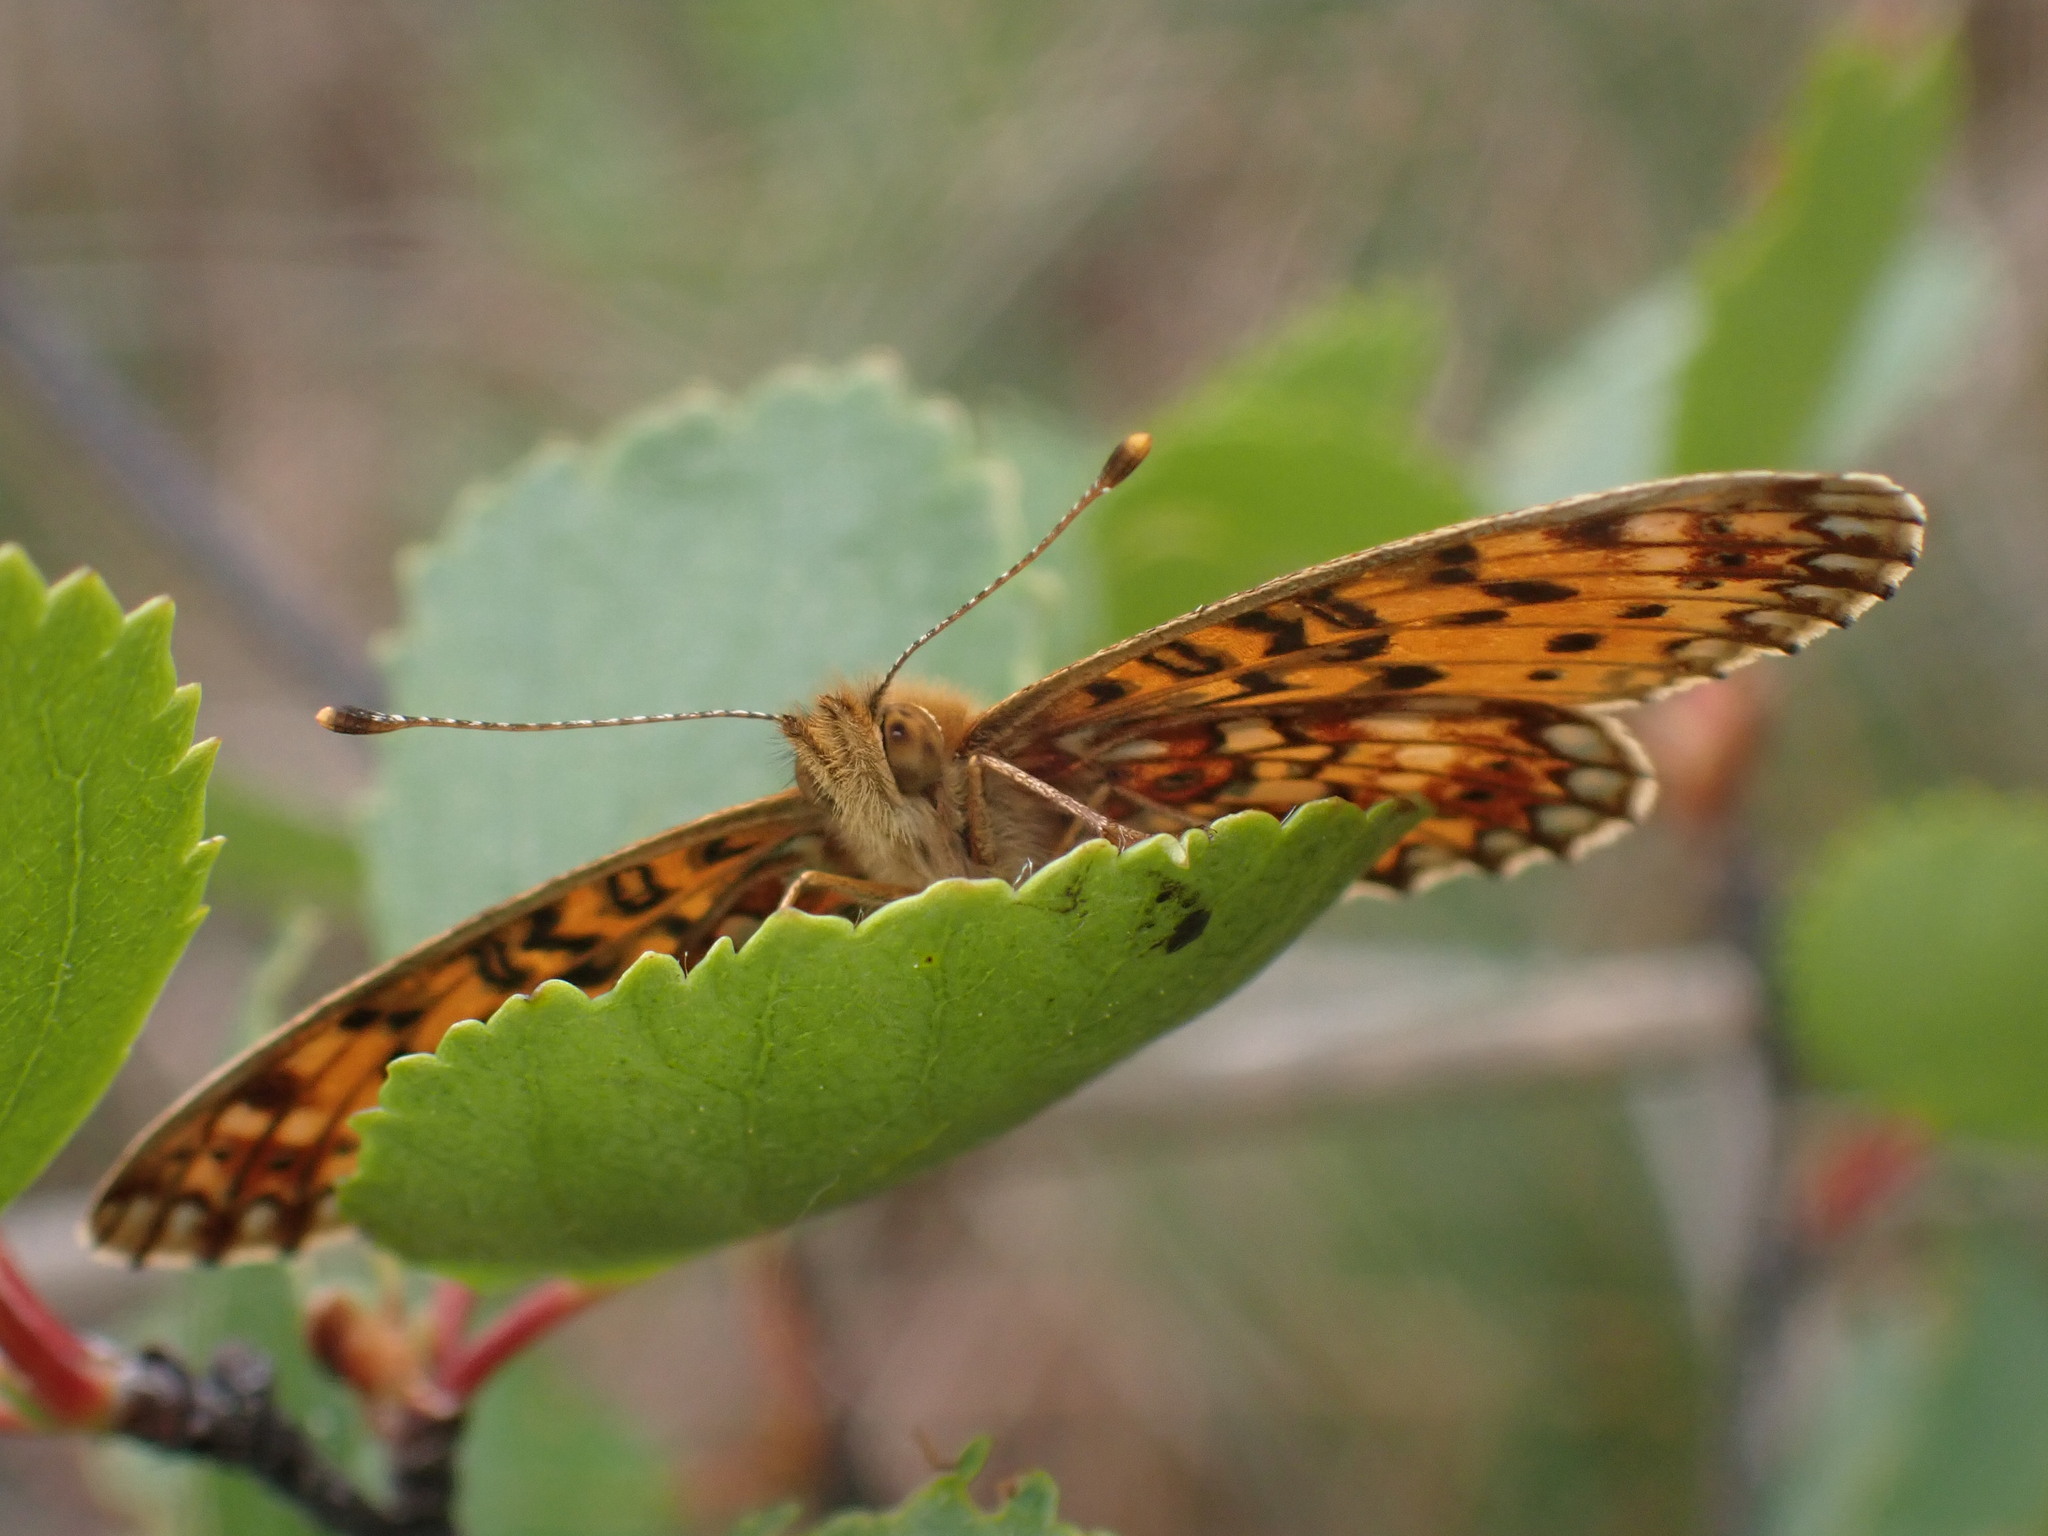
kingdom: Animalia
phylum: Arthropoda
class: Insecta
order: Lepidoptera
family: Nymphalidae
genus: Boloria
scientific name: Boloria
